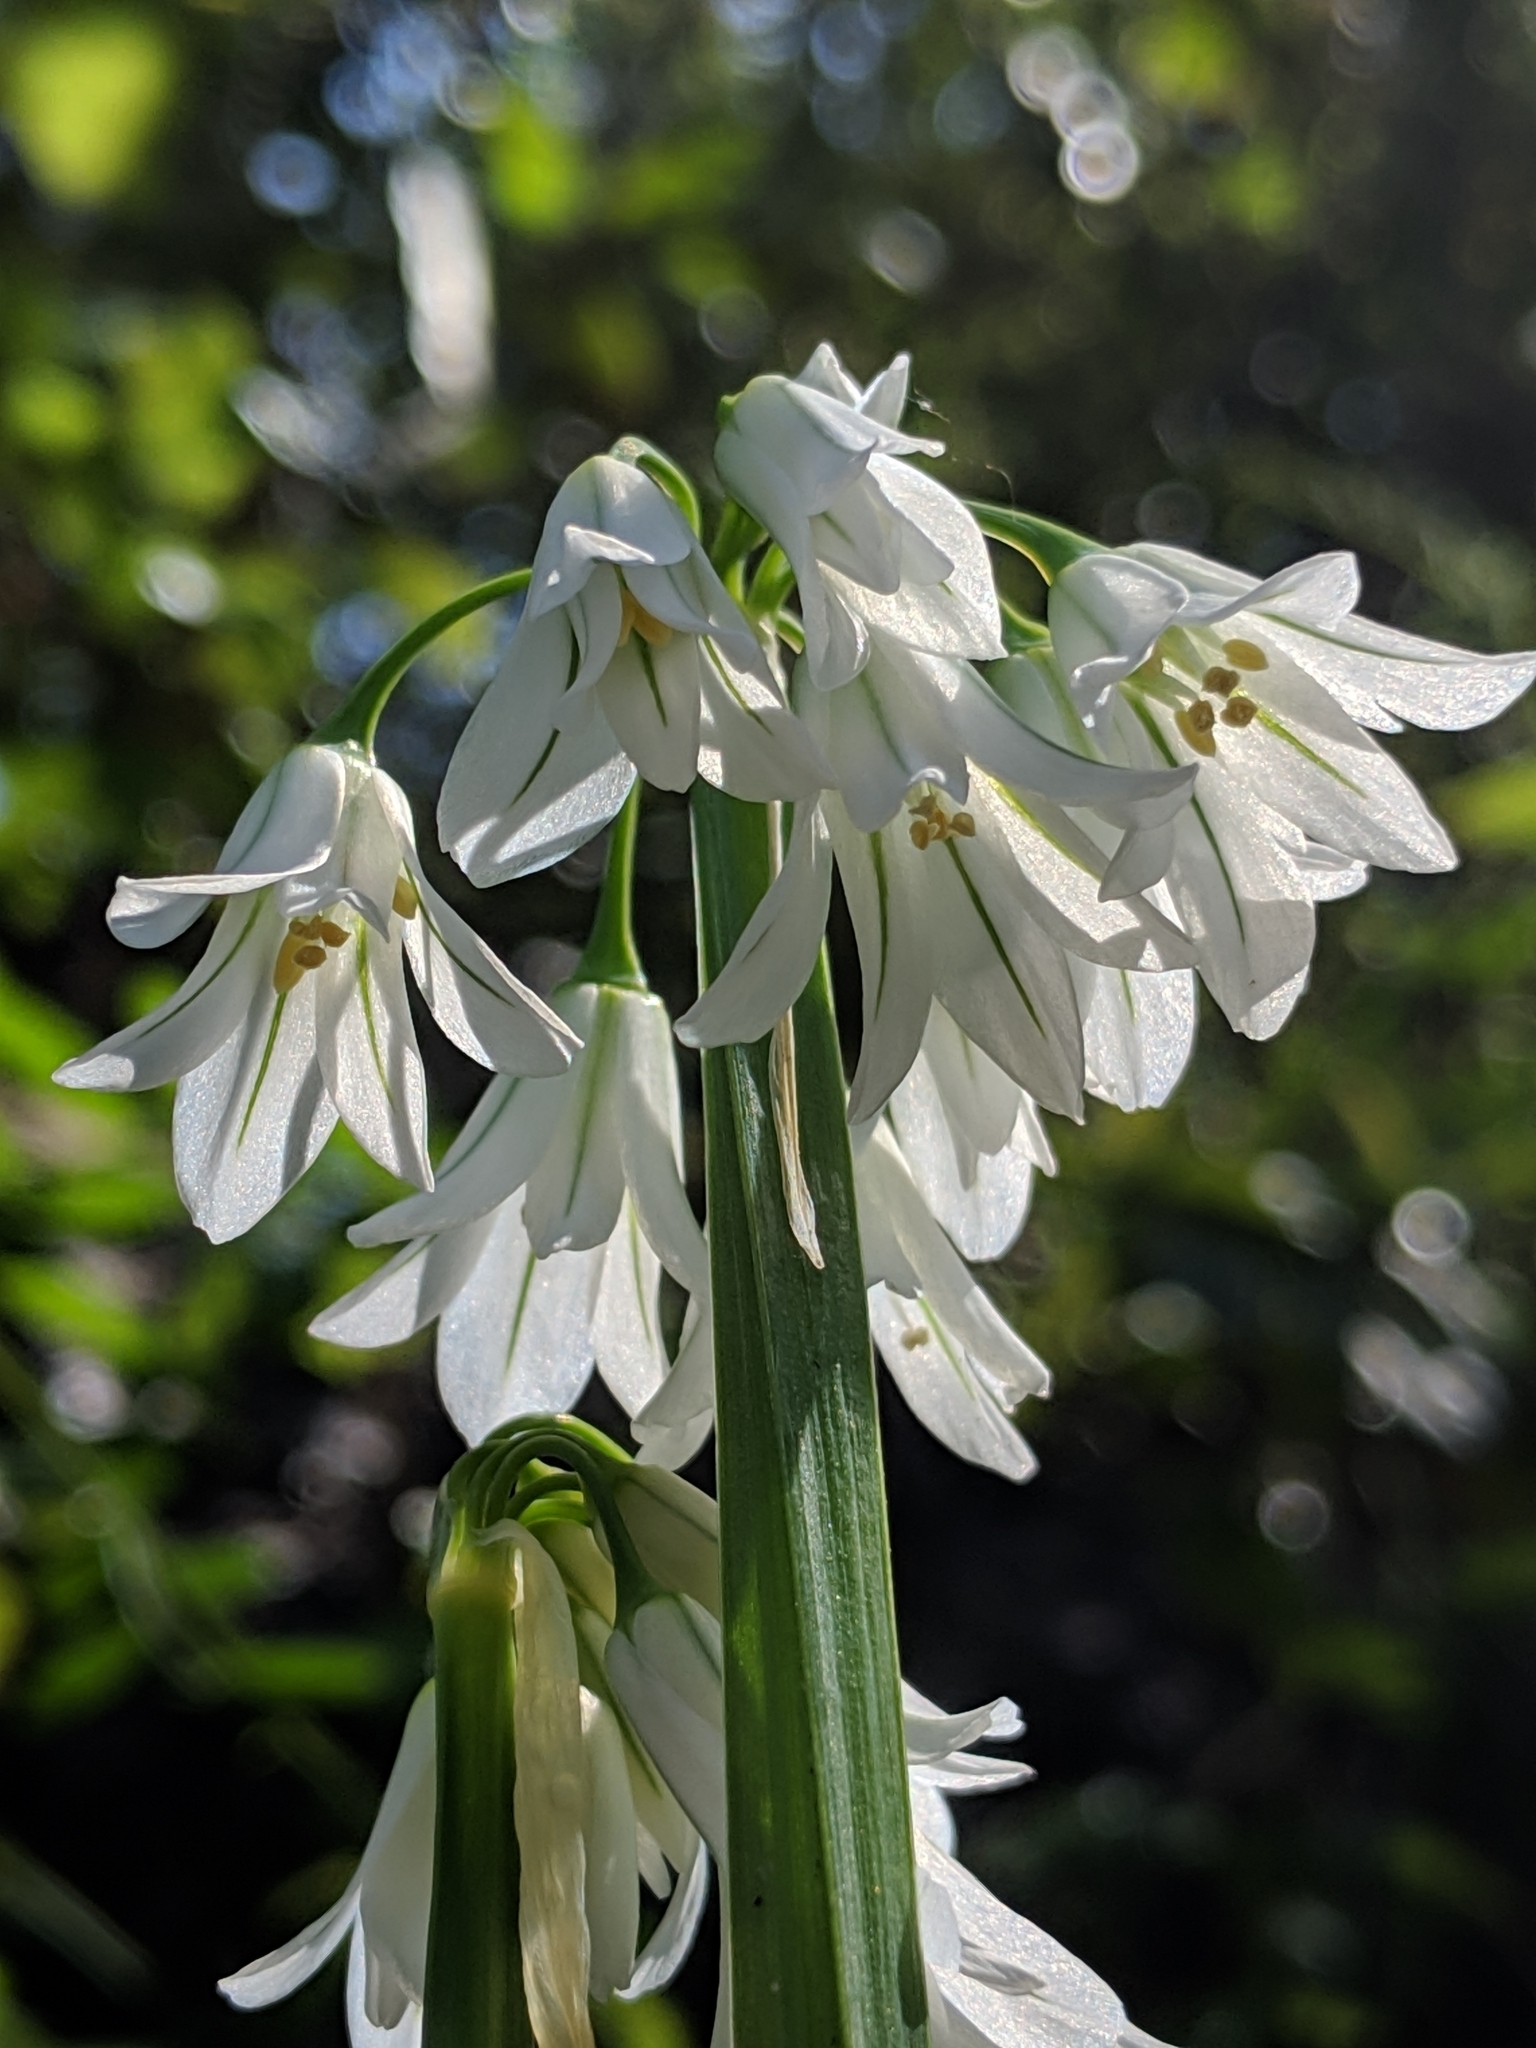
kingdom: Plantae
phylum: Tracheophyta
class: Liliopsida
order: Asparagales
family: Amaryllidaceae
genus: Allium
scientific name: Allium triquetrum
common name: Three-cornered garlic
